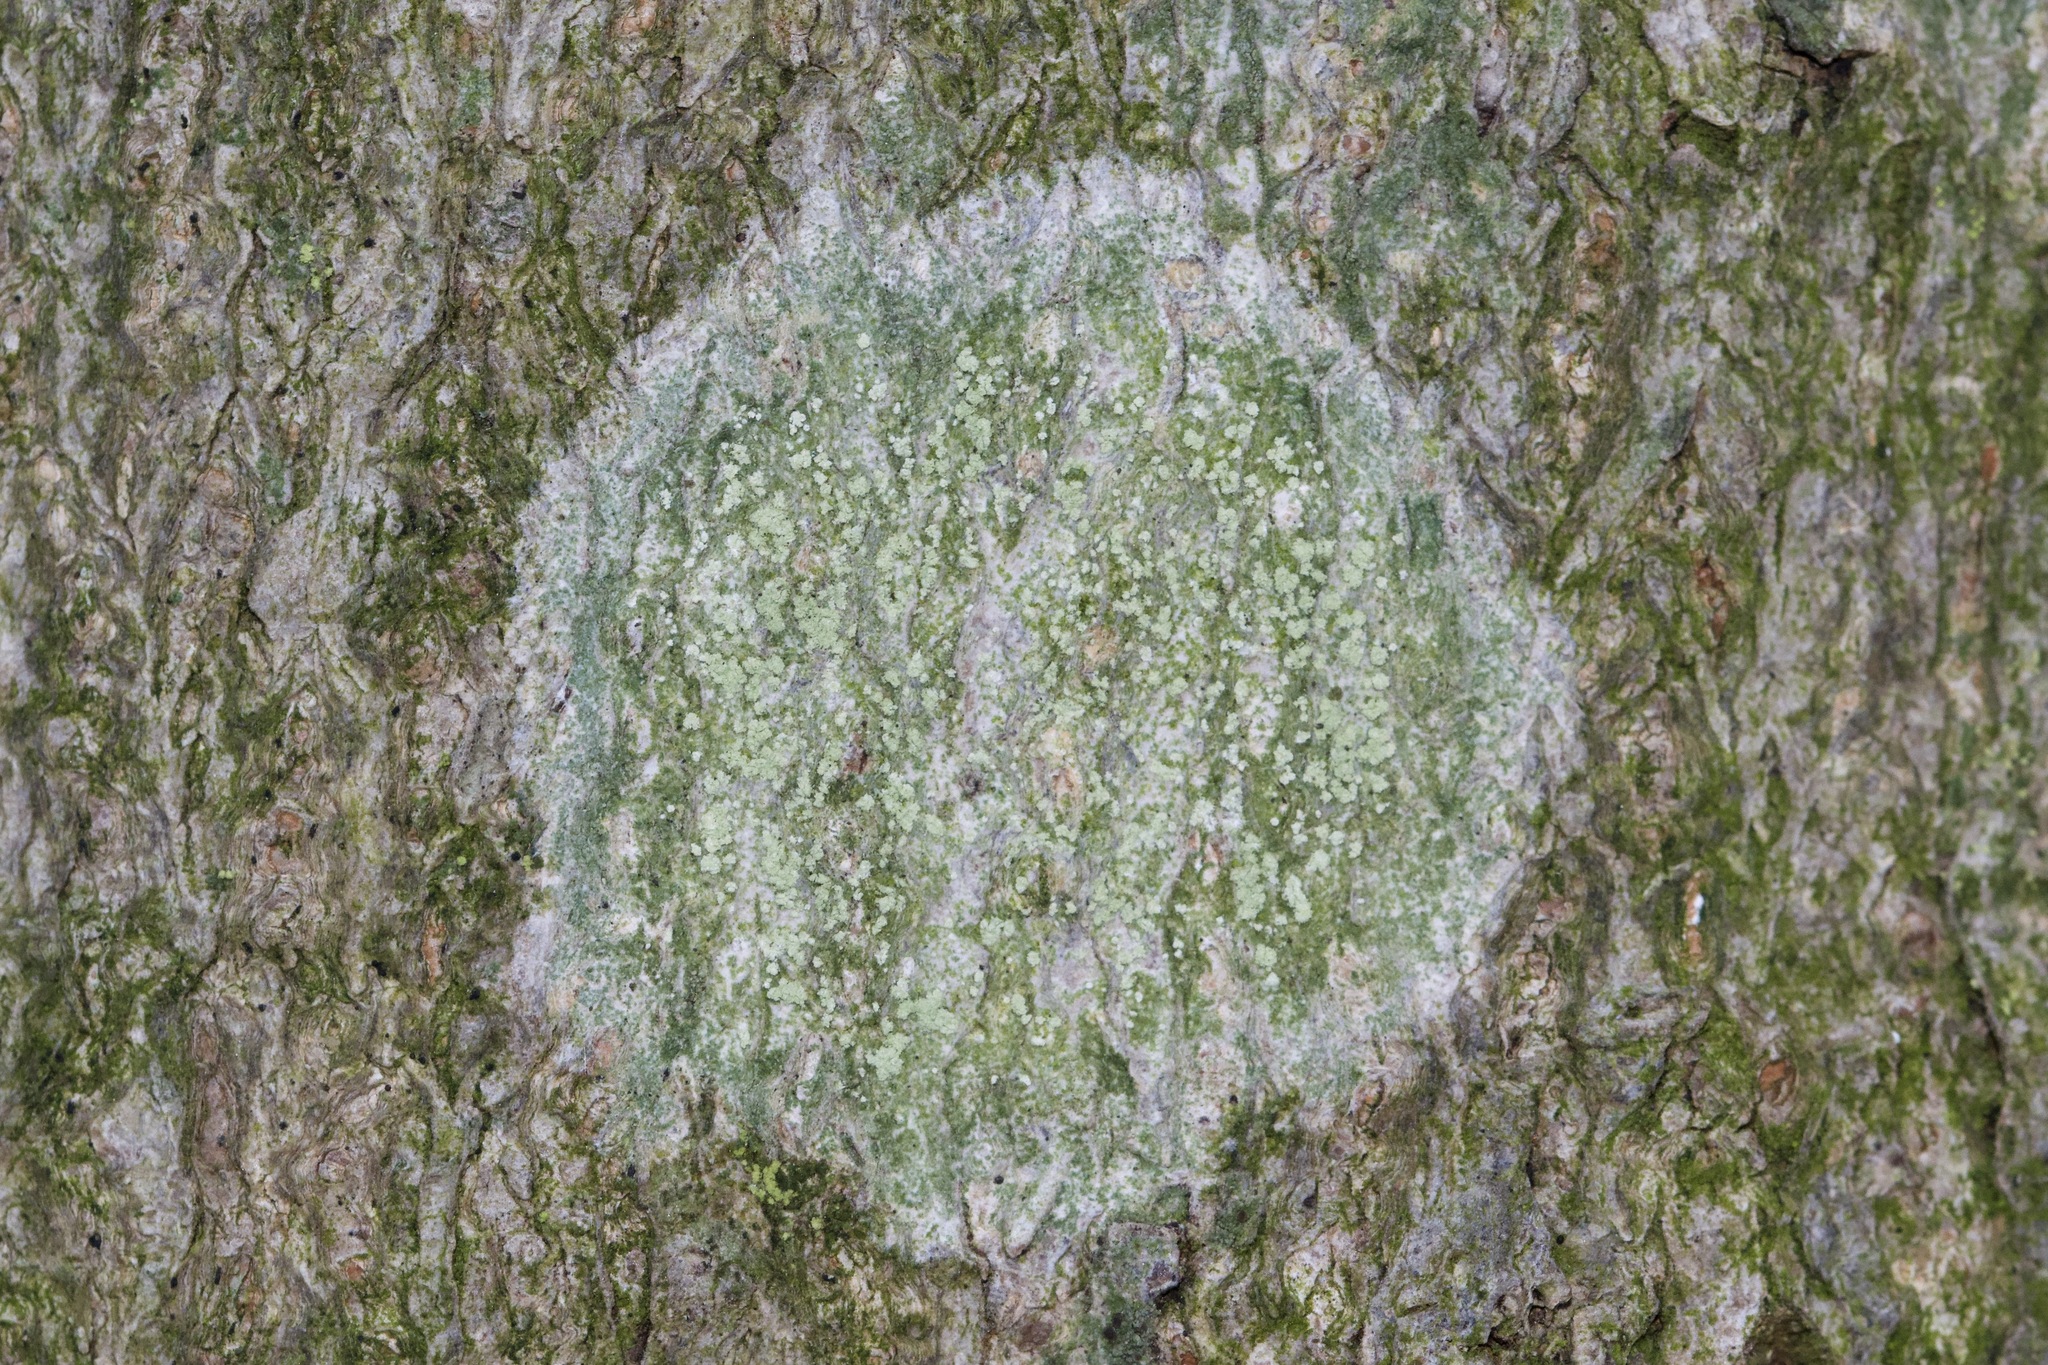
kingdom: Fungi
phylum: Ascomycota
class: Lecanoromycetes
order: Pertusariales
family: Pertusariaceae
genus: Verseghya
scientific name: Verseghya thysanophora
